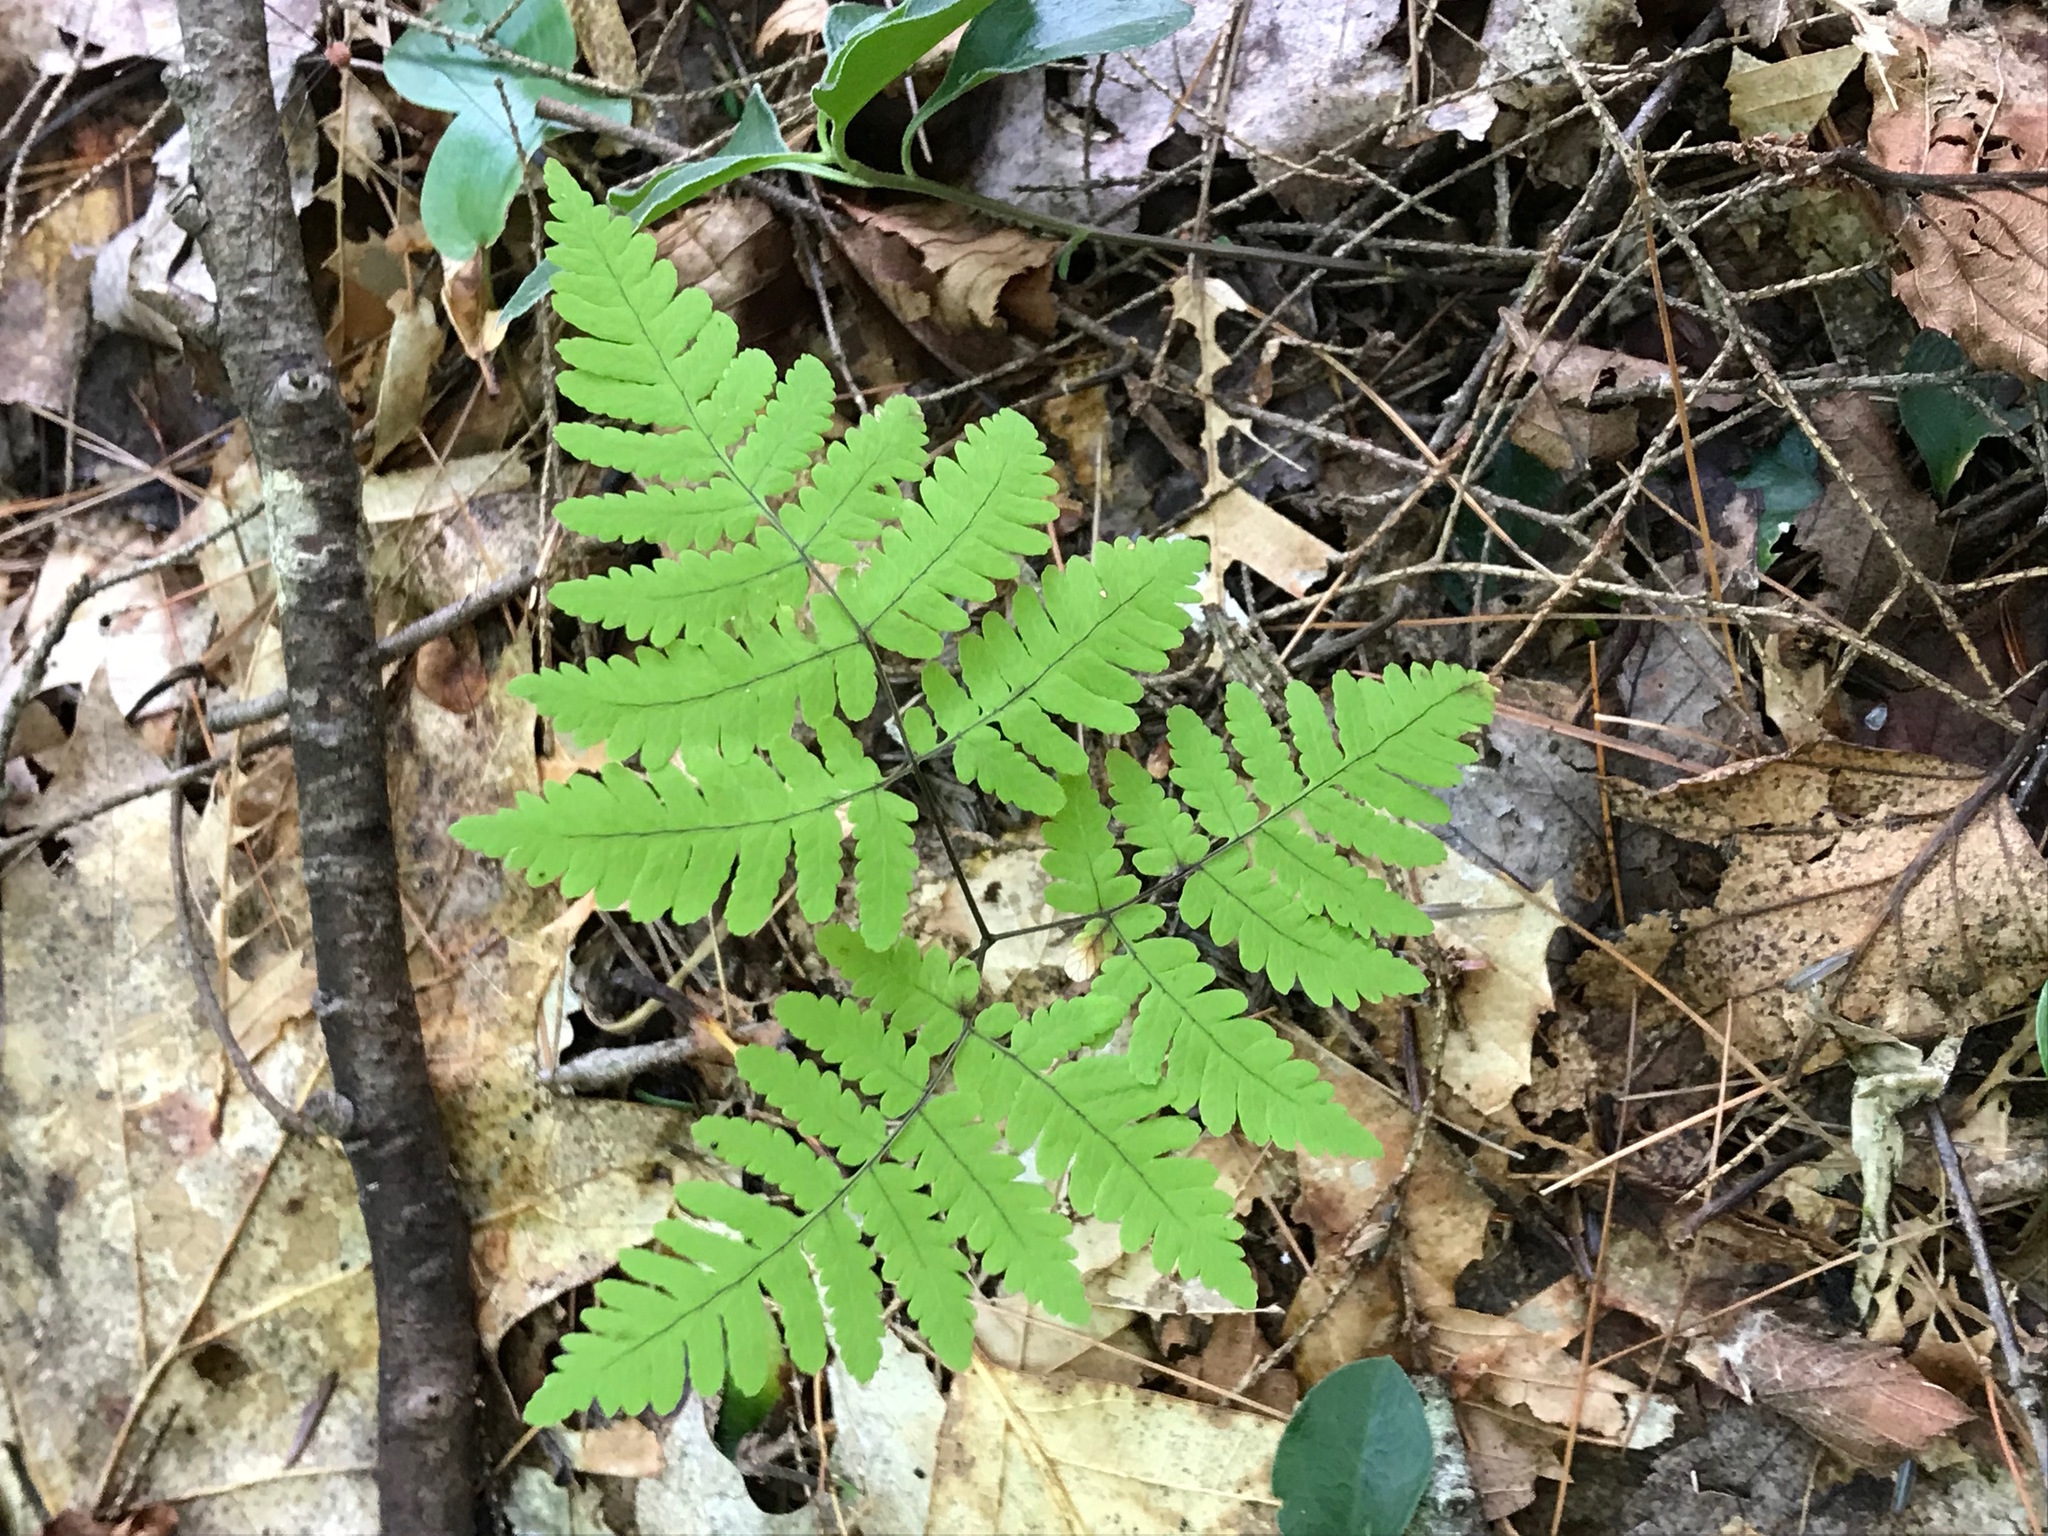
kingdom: Plantae
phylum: Tracheophyta
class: Polypodiopsida
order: Polypodiales
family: Cystopteridaceae
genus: Gymnocarpium
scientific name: Gymnocarpium dryopteris
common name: Oak fern
